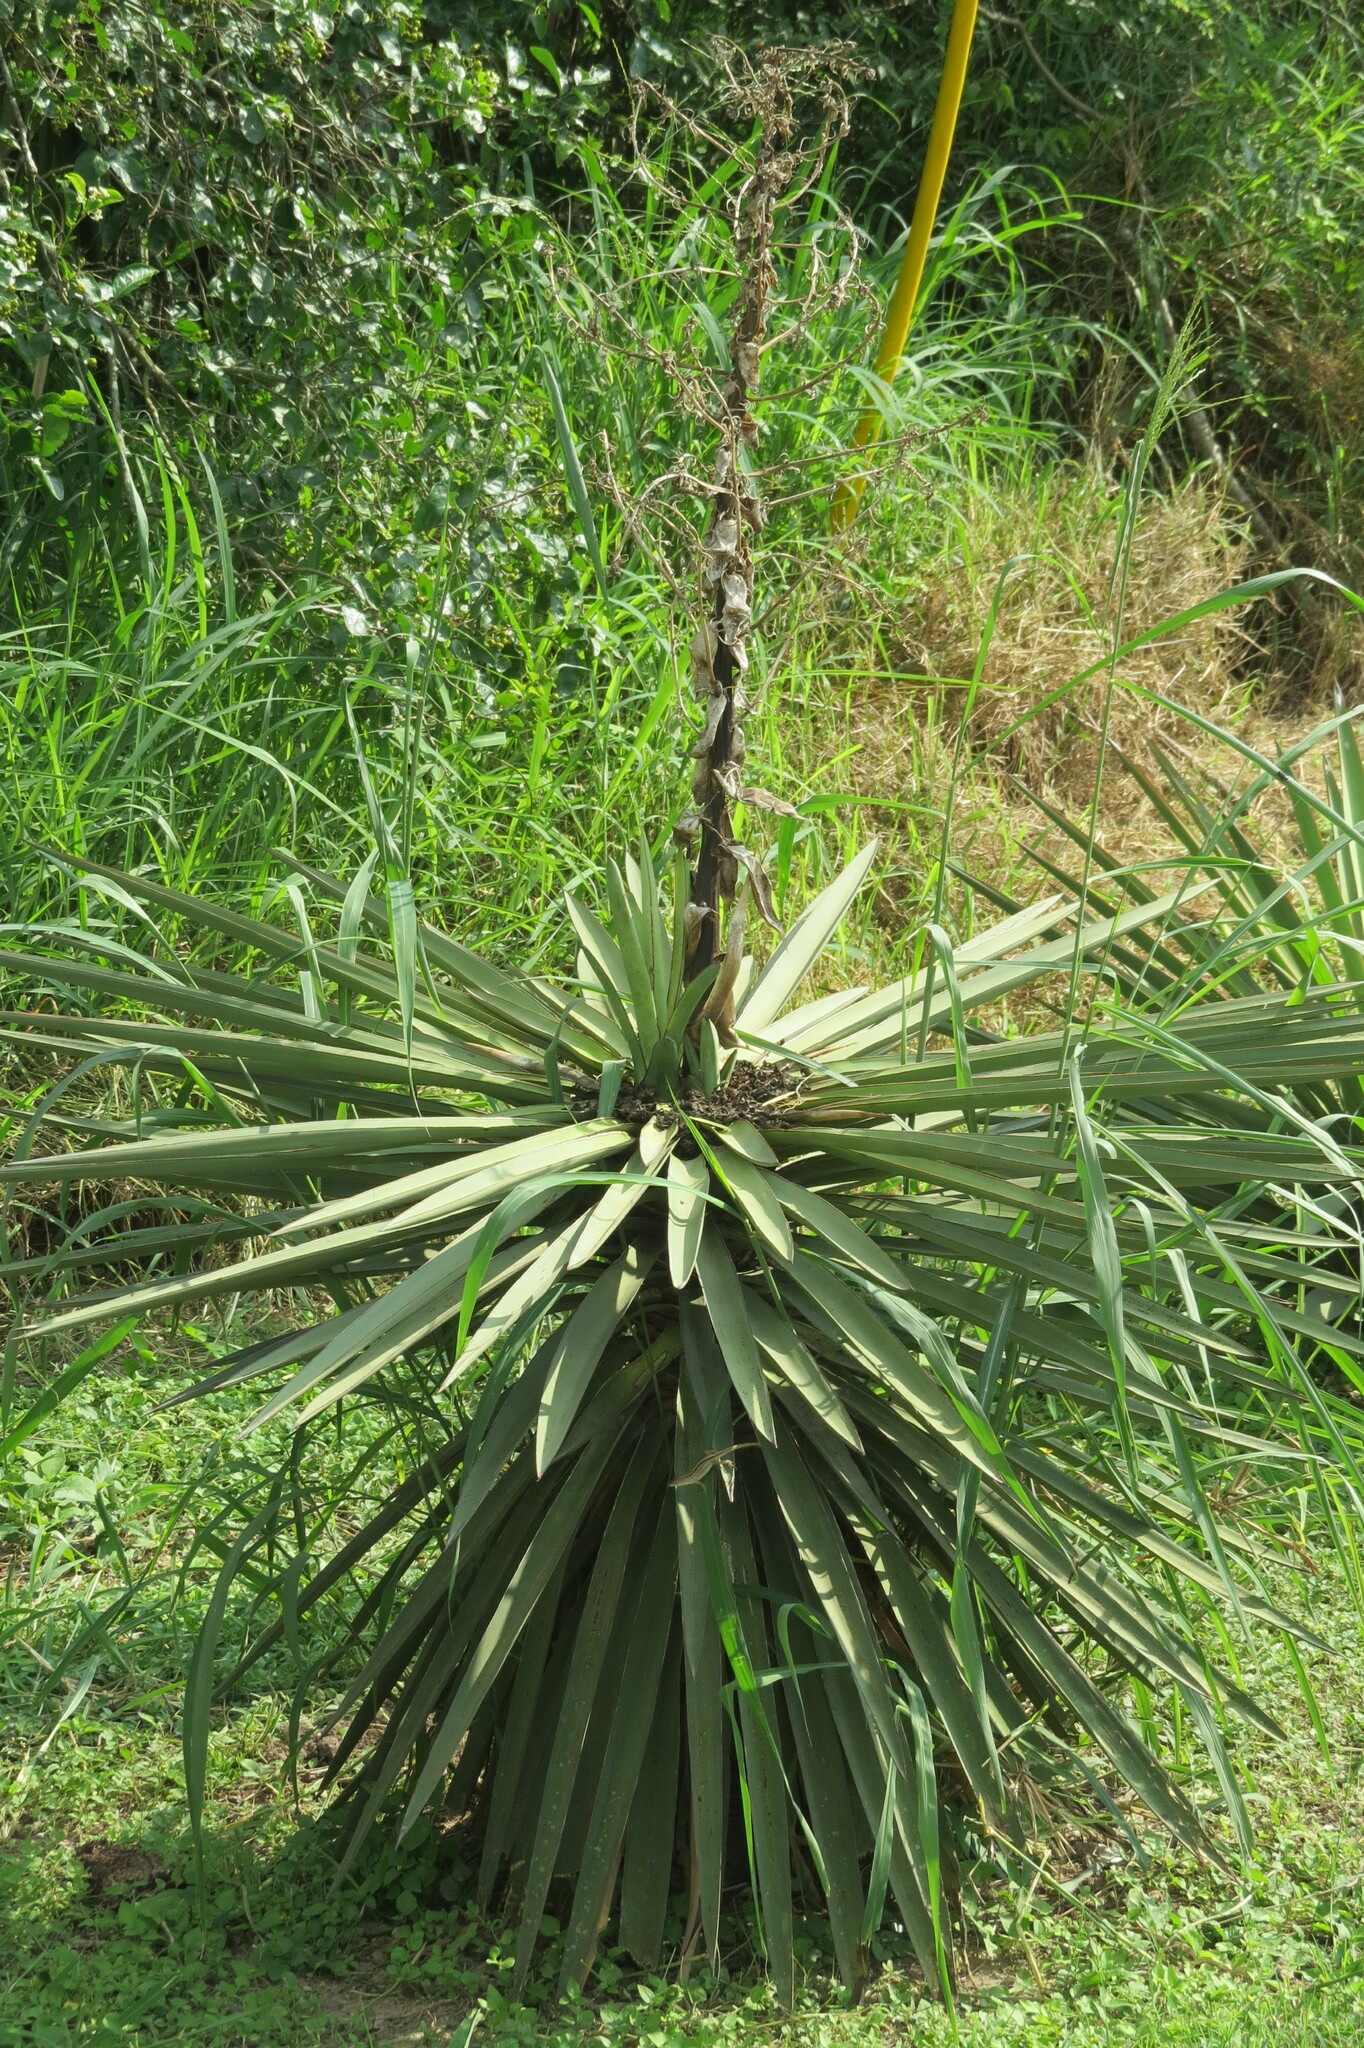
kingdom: Plantae
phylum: Tracheophyta
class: Liliopsida
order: Asparagales
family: Asparagaceae
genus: Yucca
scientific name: Yucca treculiana
